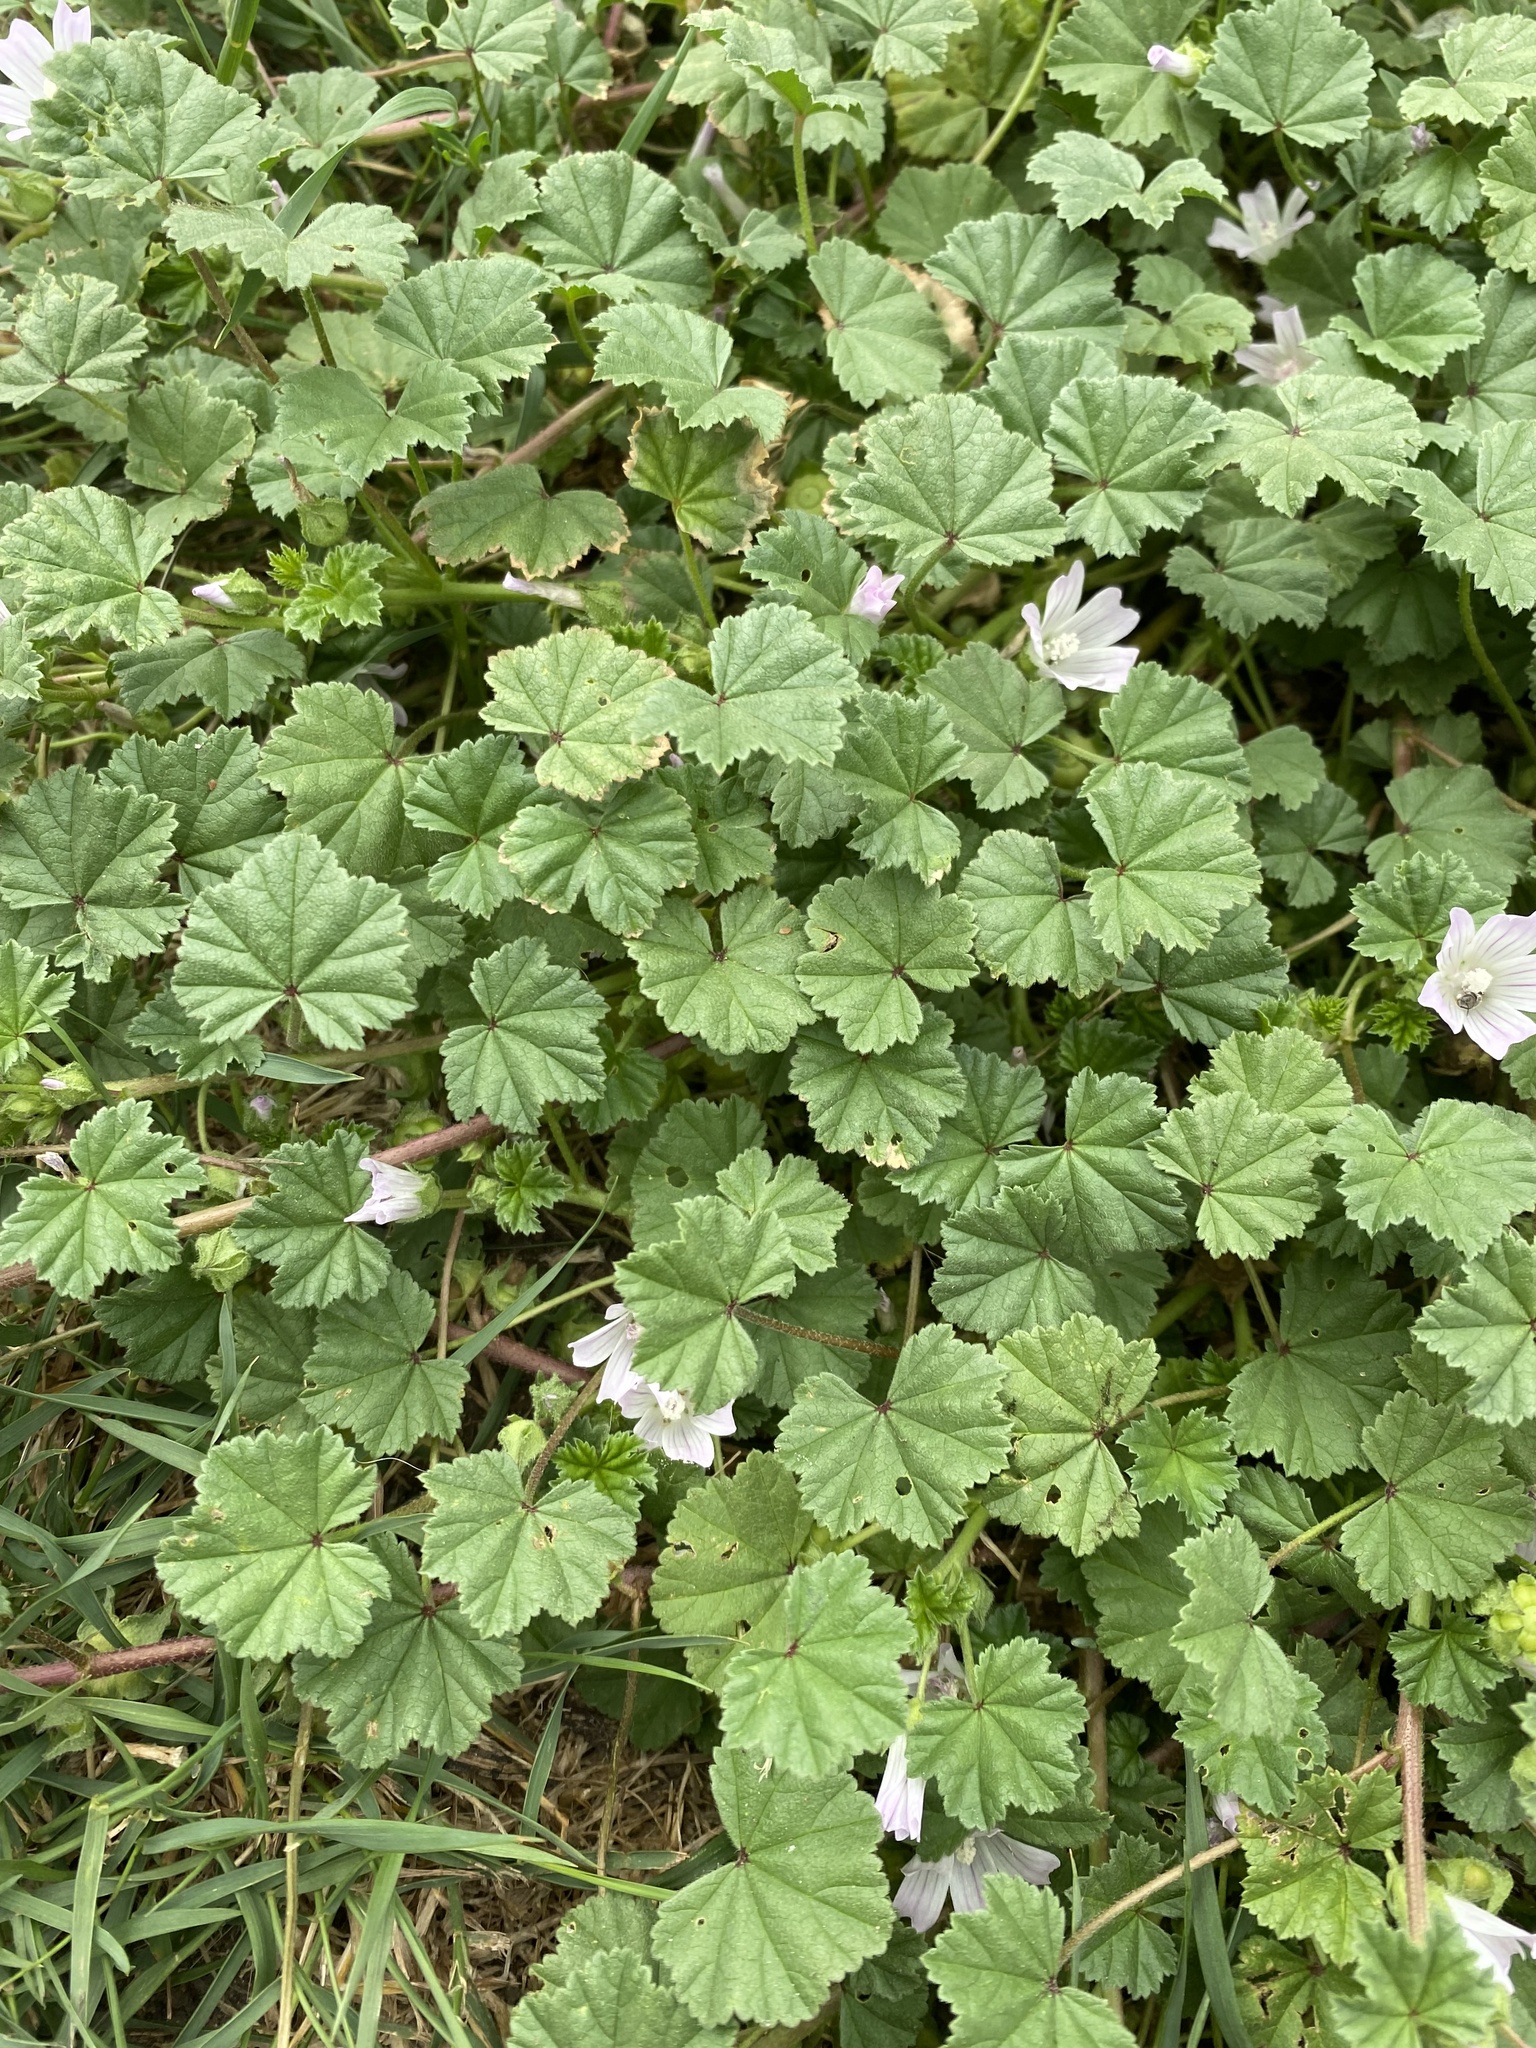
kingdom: Plantae
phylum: Tracheophyta
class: Magnoliopsida
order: Malvales
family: Malvaceae
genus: Malva
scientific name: Malva neglecta
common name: Common mallow
